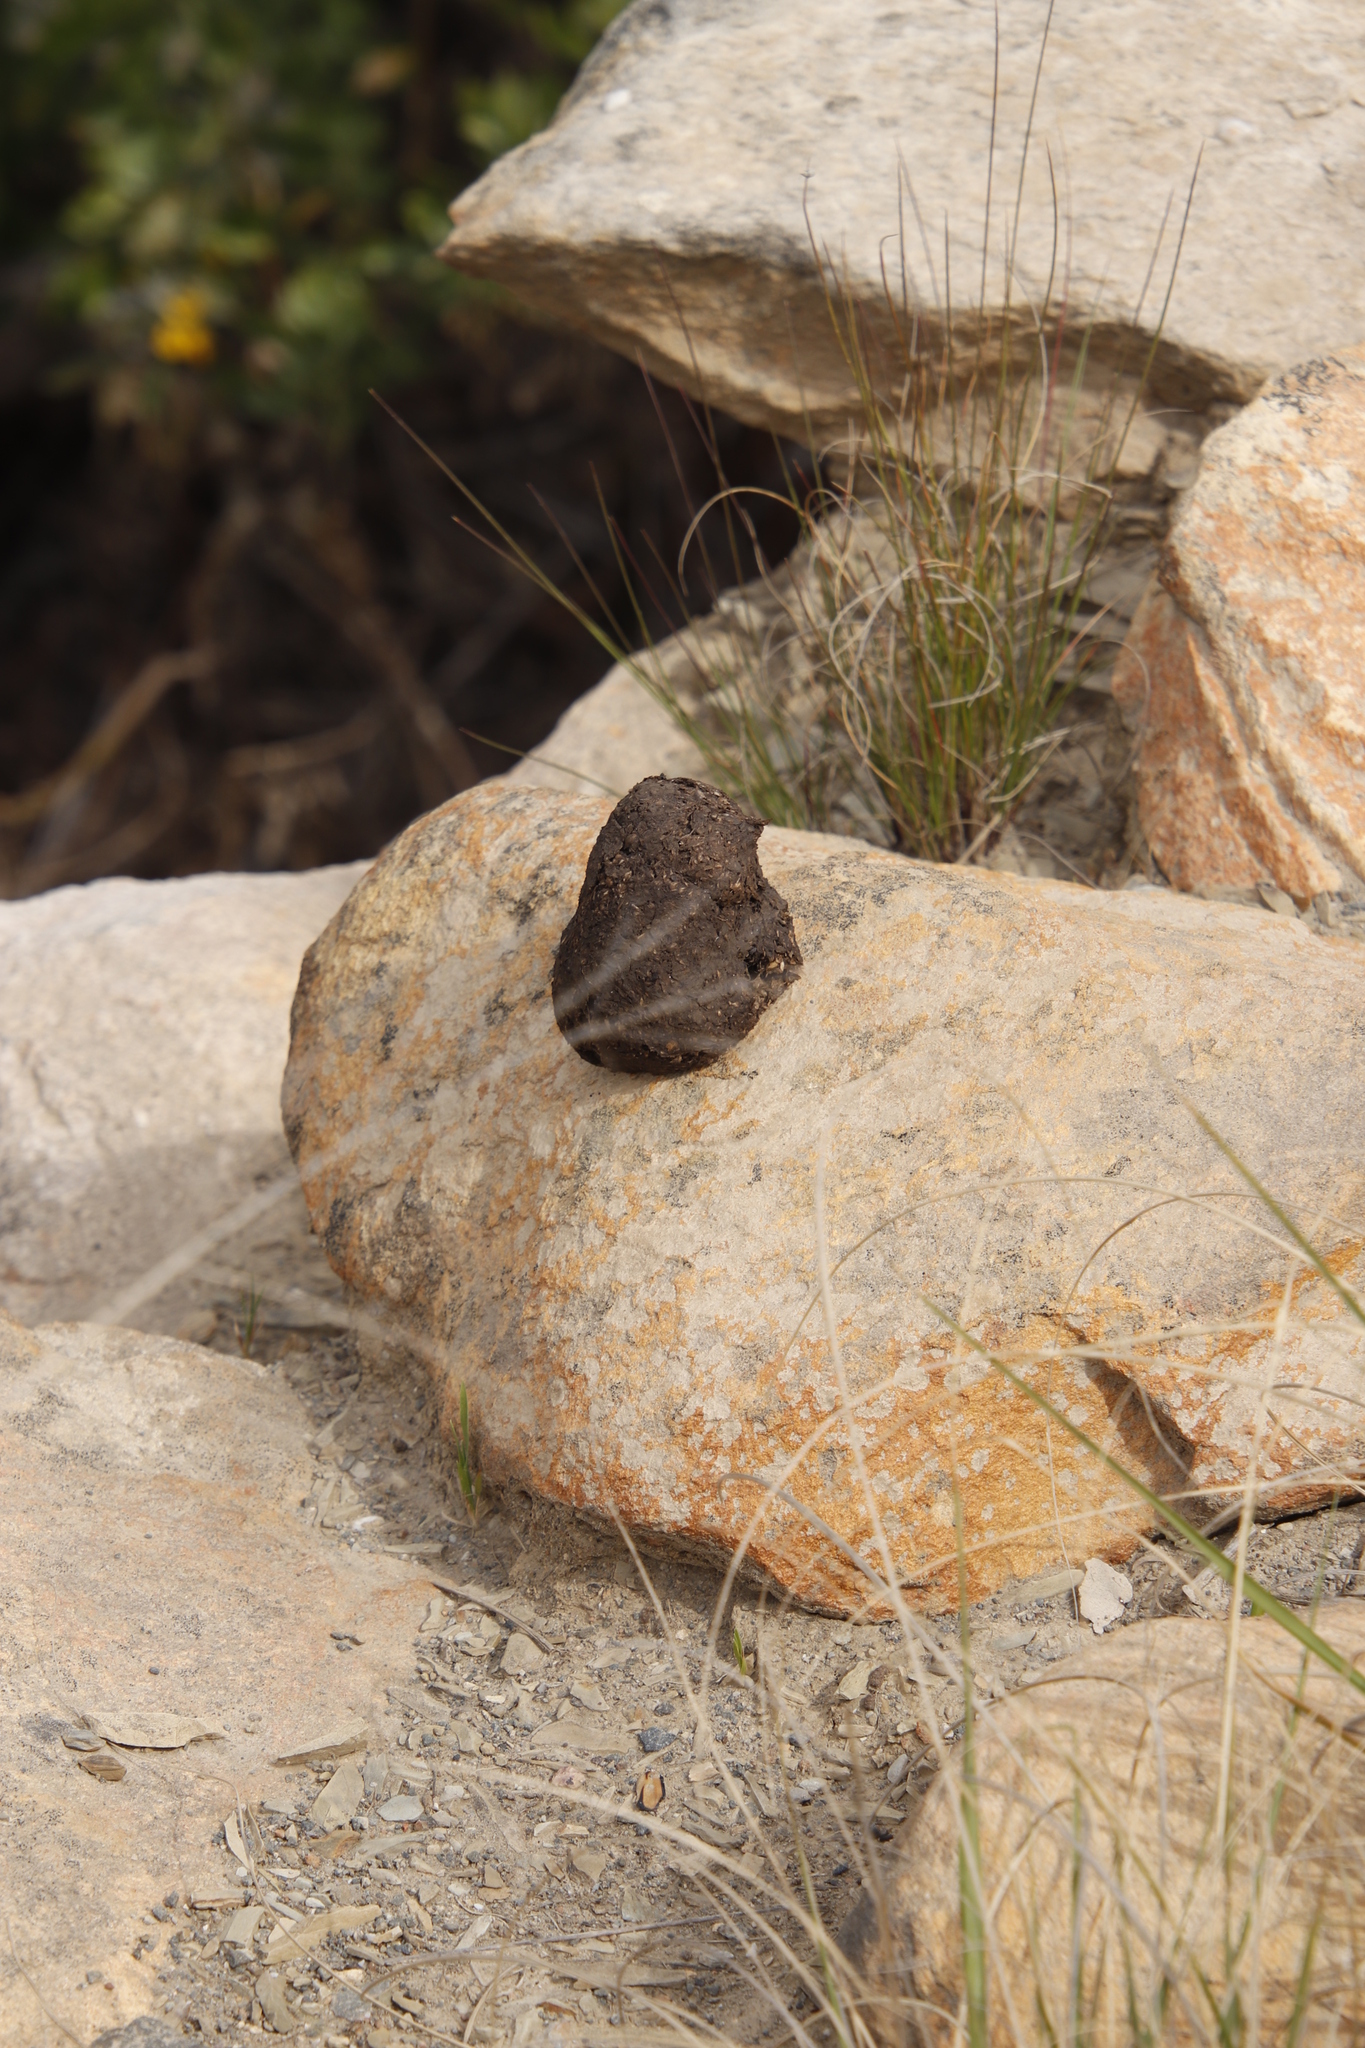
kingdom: Animalia
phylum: Chordata
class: Mammalia
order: Primates
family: Cercopithecidae
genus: Papio
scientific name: Papio ursinus
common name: Chacma baboon
